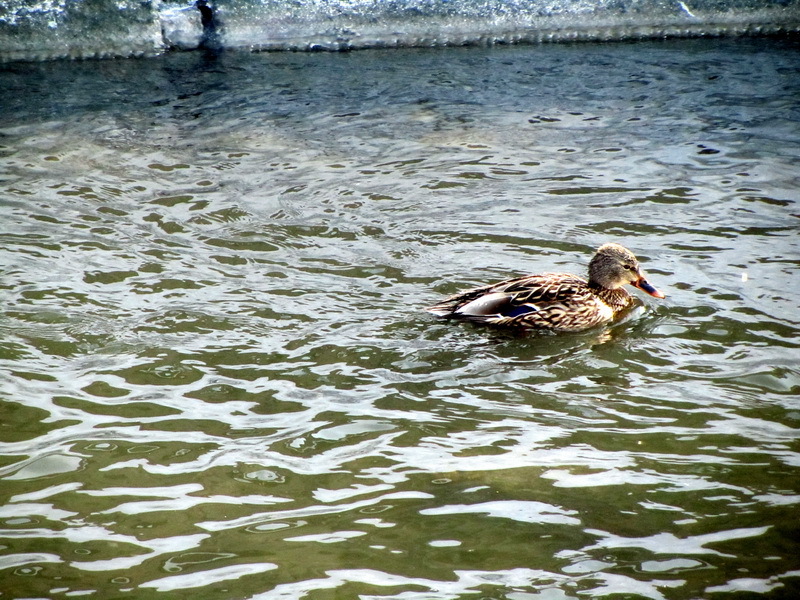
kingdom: Animalia
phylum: Chordata
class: Aves
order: Anseriformes
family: Anatidae
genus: Anas
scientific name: Anas platyrhynchos
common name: Mallard
